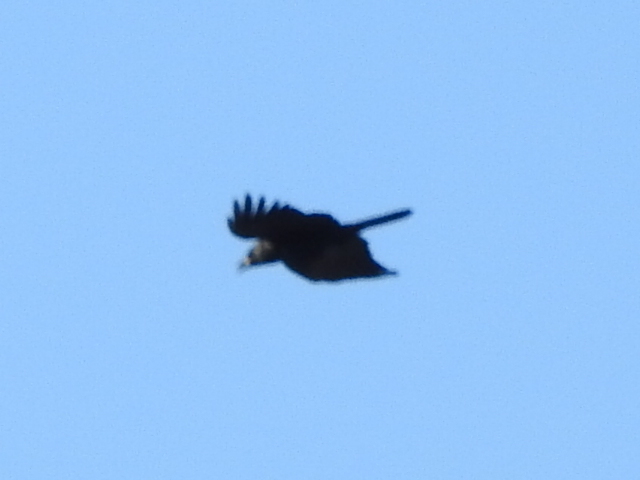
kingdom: Animalia
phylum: Chordata
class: Aves
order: Passeriformes
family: Corvidae
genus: Corvus
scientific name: Corvus brachyrhynchos
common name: American crow
